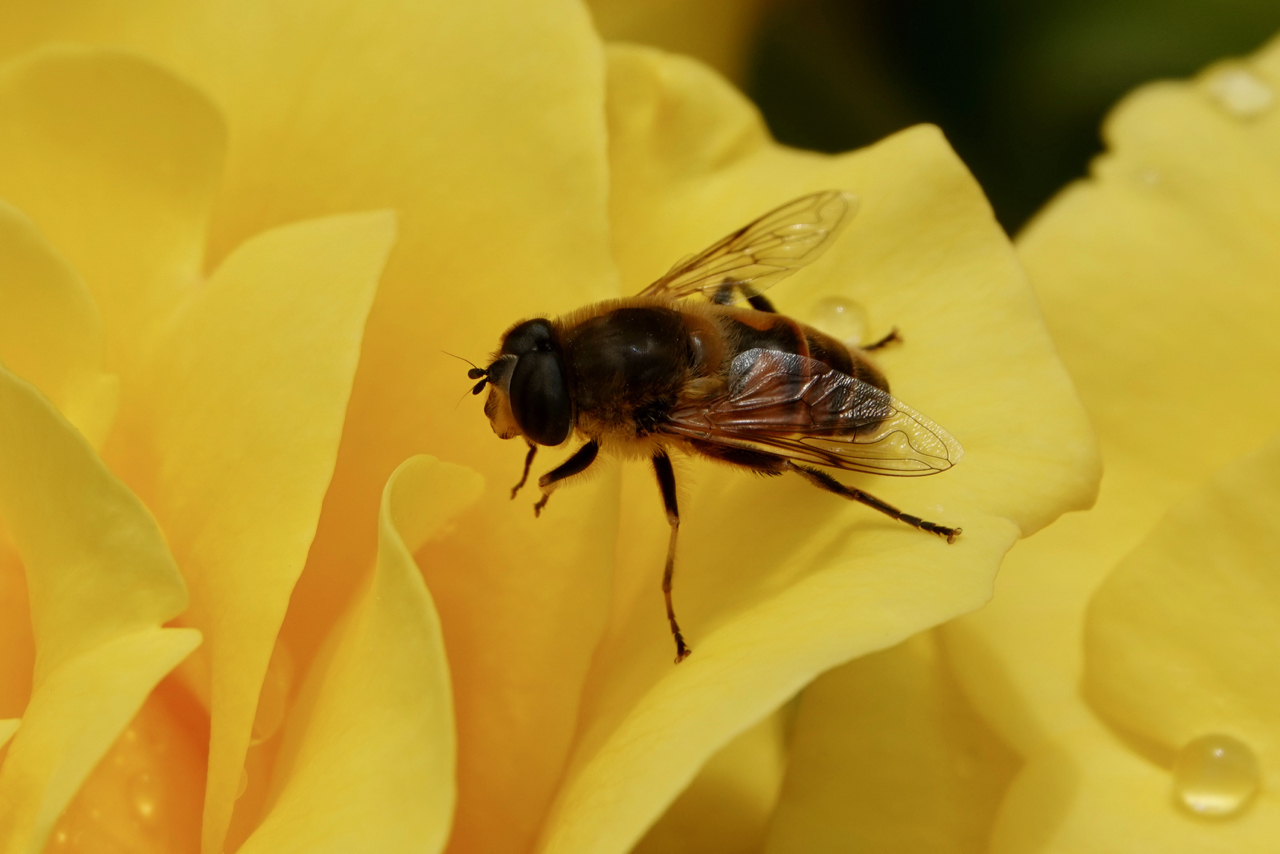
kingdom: Animalia
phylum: Arthropoda
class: Insecta
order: Diptera
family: Syrphidae
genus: Eristalis
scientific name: Eristalis tenax
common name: Drone fly
